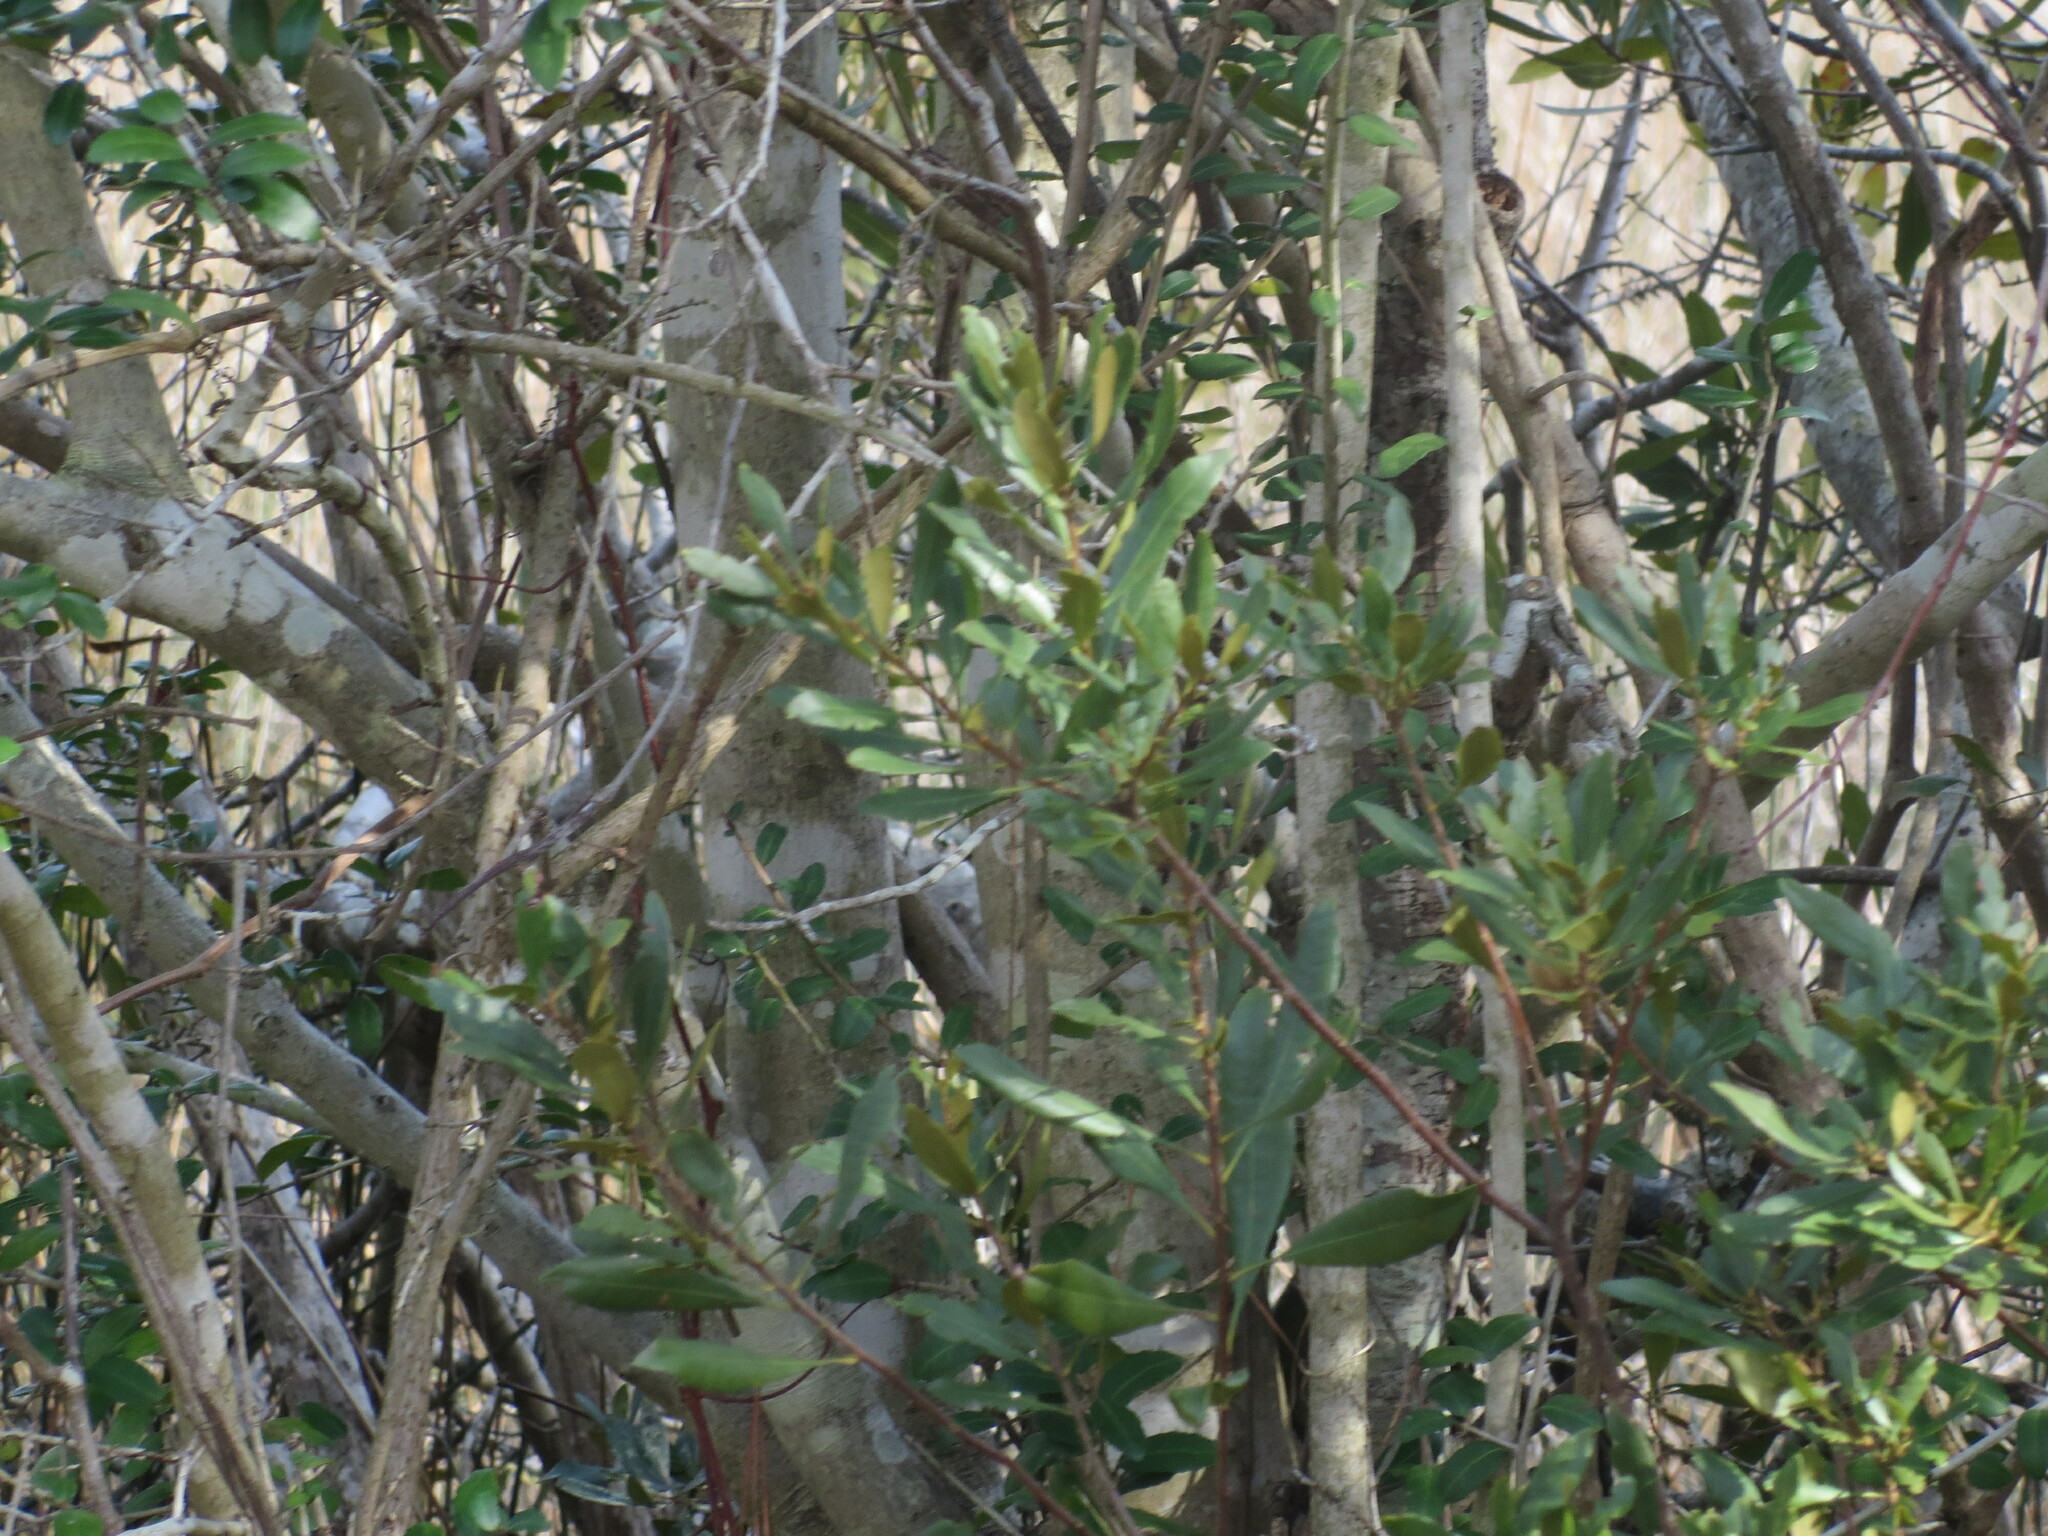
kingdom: Plantae
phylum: Tracheophyta
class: Magnoliopsida
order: Fagales
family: Myricaceae
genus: Morella
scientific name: Morella cerifera
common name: Wax myrtle
